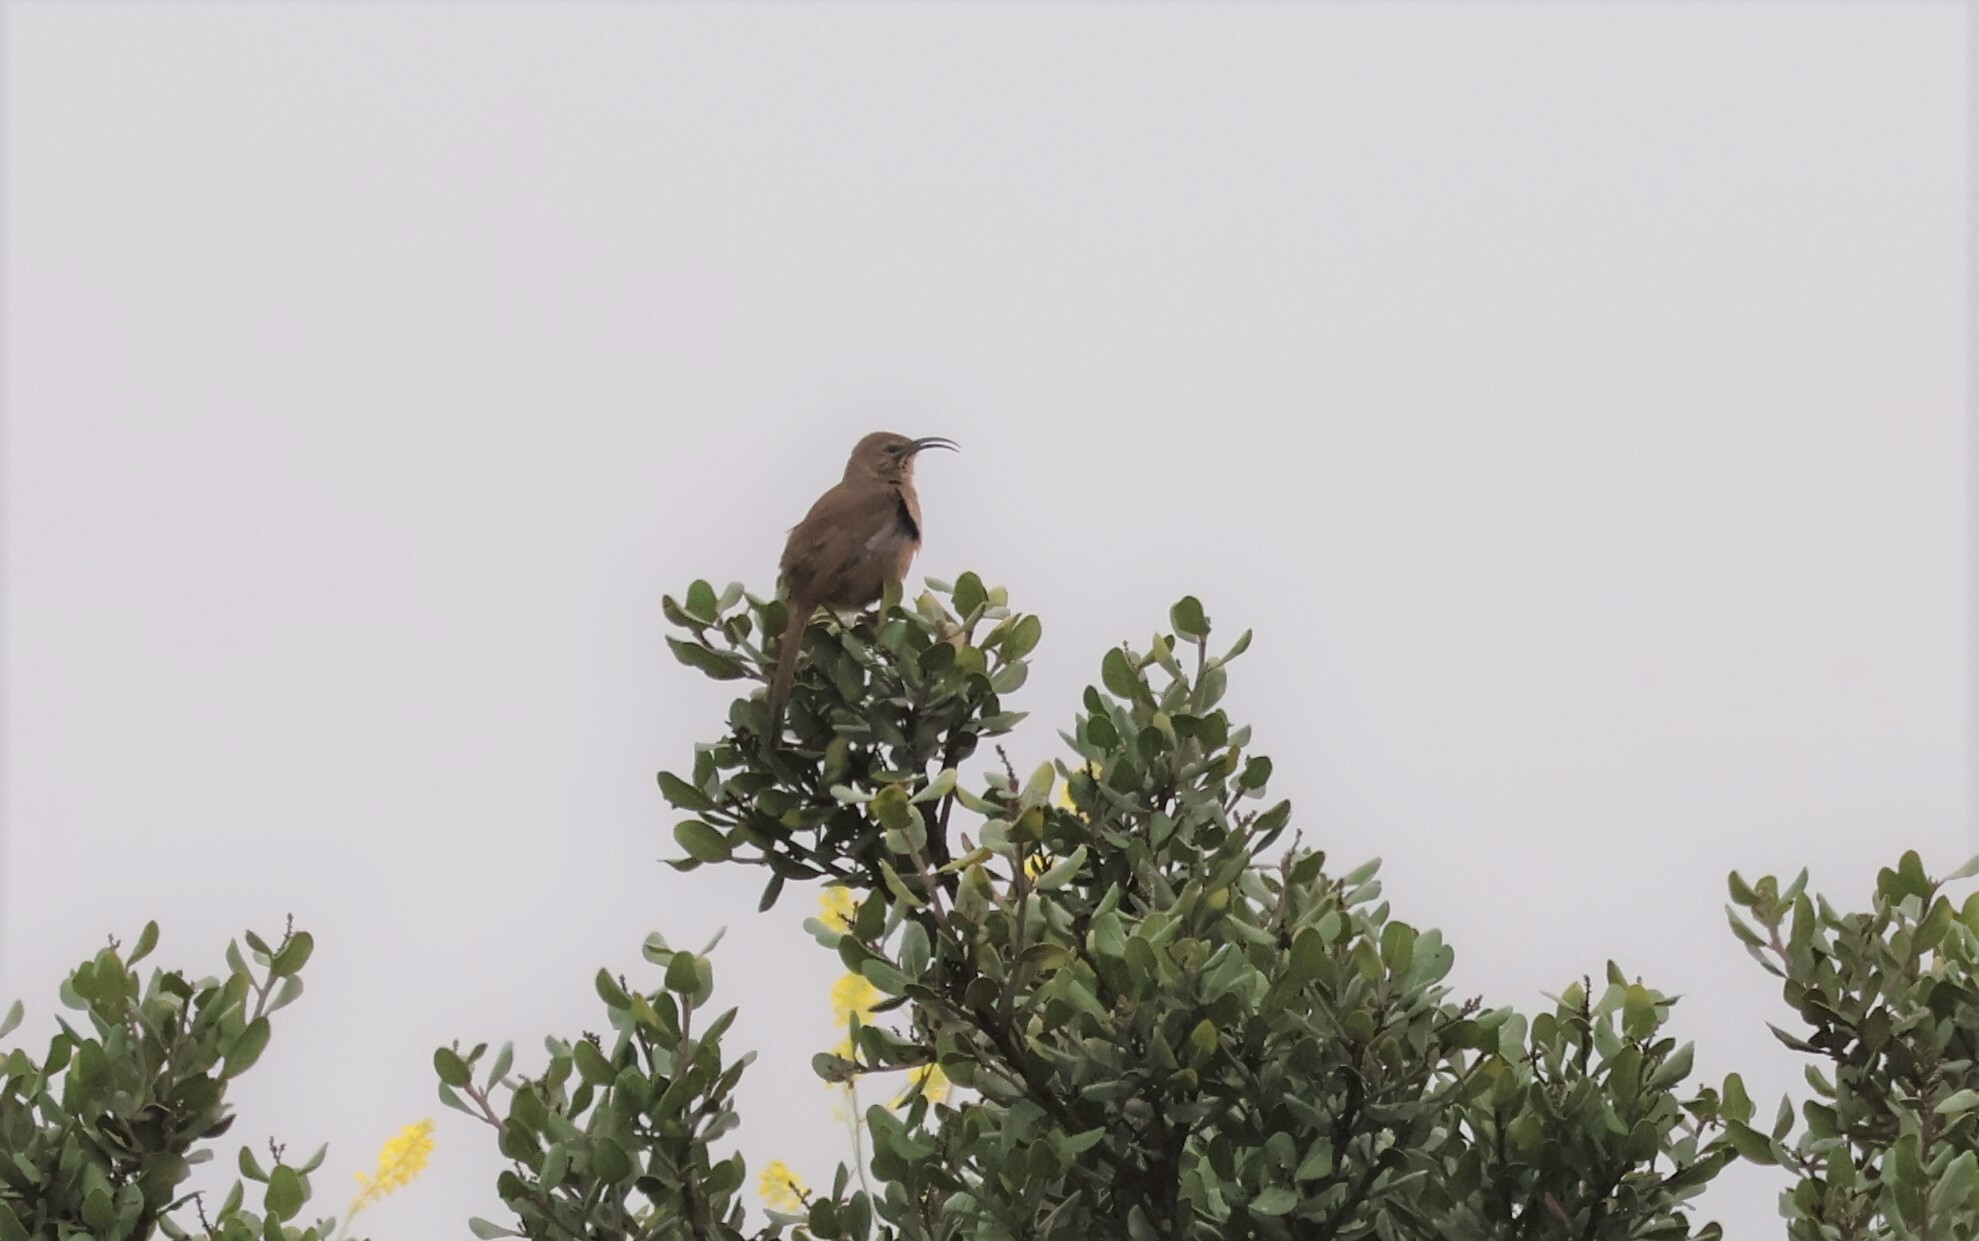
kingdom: Animalia
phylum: Chordata
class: Aves
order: Passeriformes
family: Mimidae
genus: Toxostoma
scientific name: Toxostoma redivivum
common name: California thrasher
